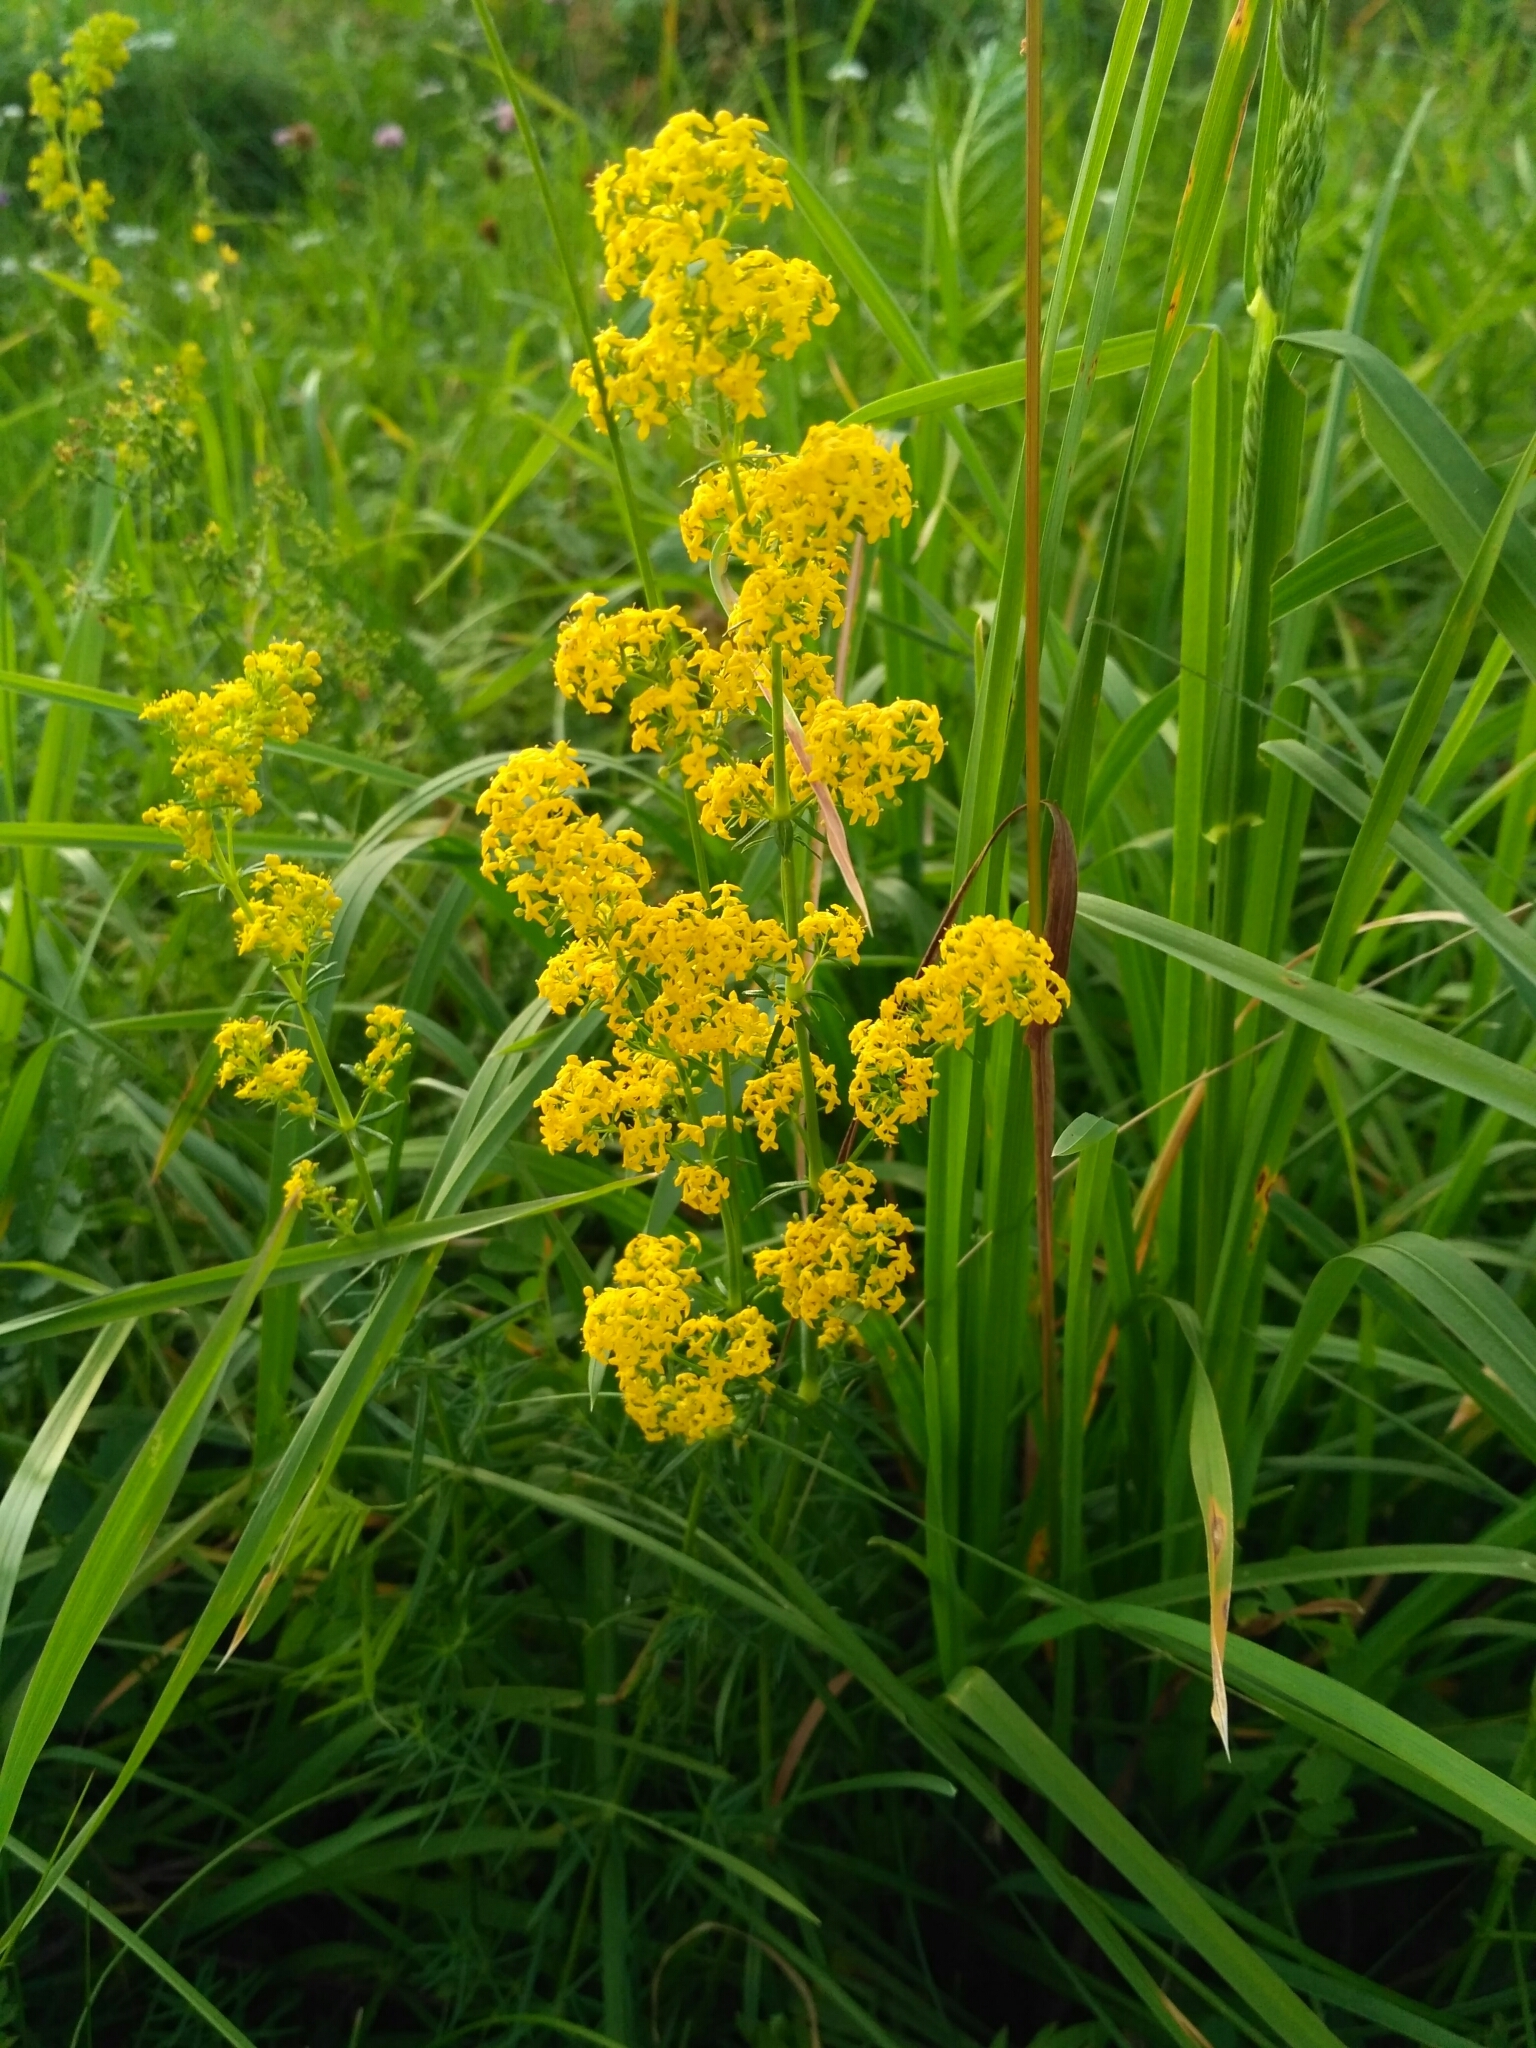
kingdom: Plantae
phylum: Tracheophyta
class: Magnoliopsida
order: Gentianales
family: Rubiaceae
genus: Galium
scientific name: Galium verum
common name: Lady's bedstraw
